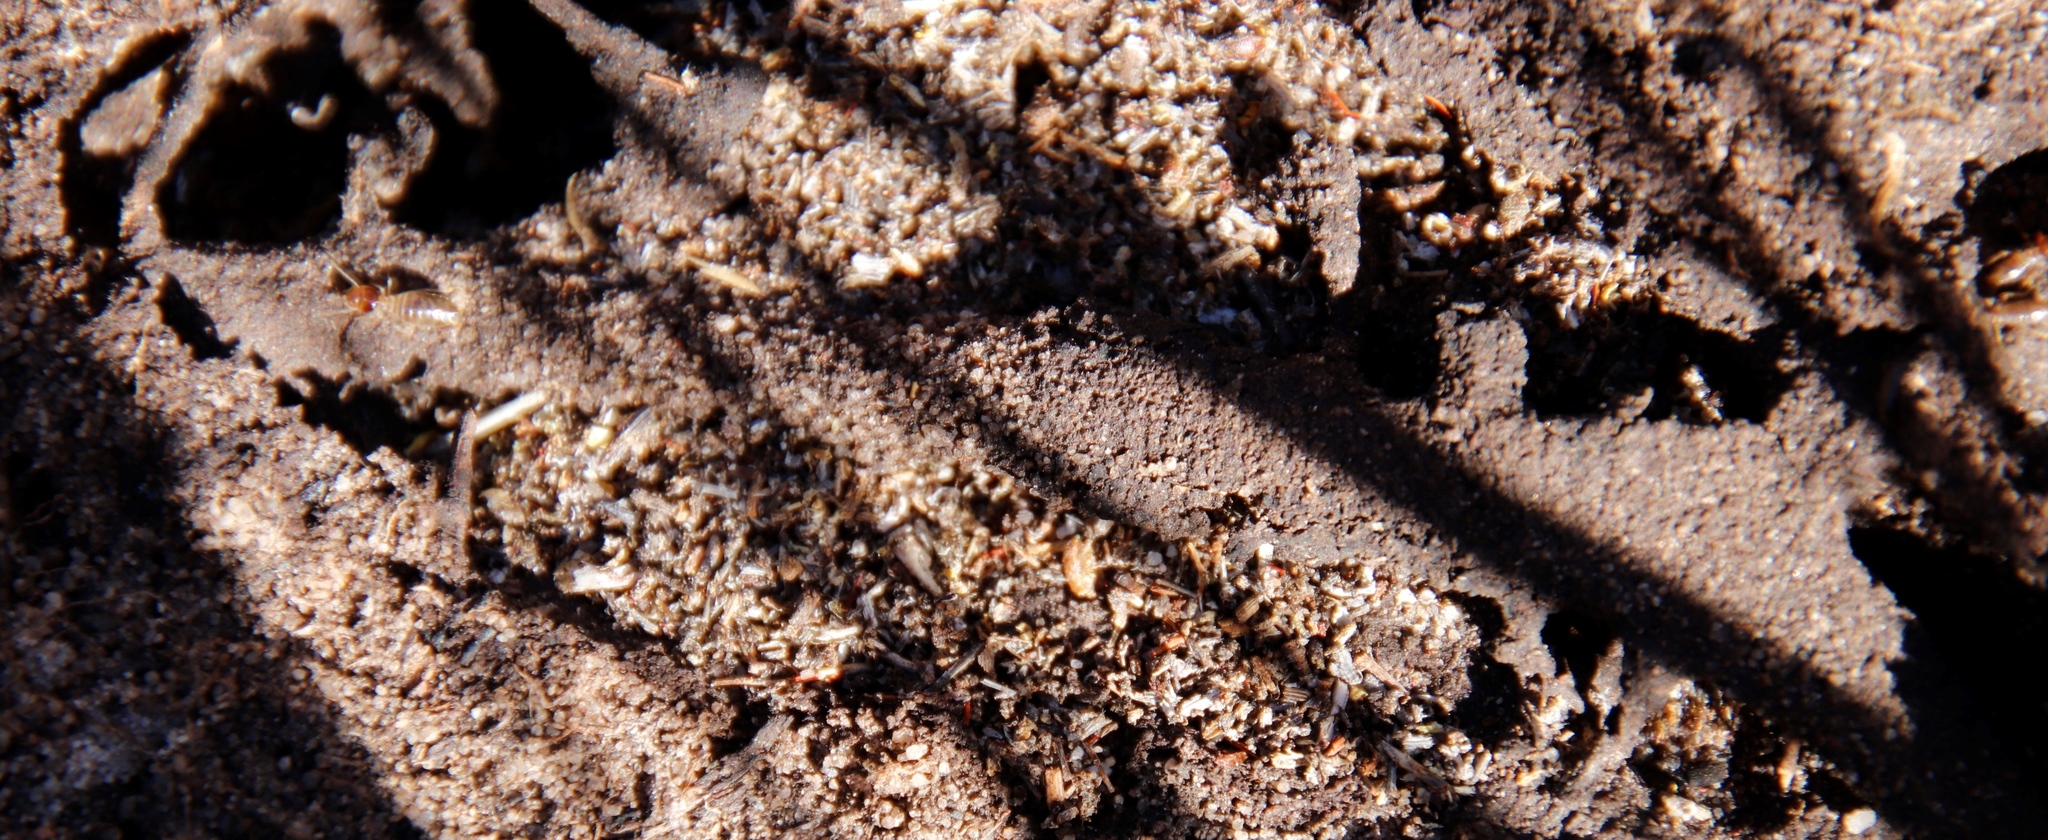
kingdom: Animalia
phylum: Arthropoda
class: Insecta
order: Blattodea
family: Termitidae
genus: Fulleritermes
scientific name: Fulleritermes mallyi
